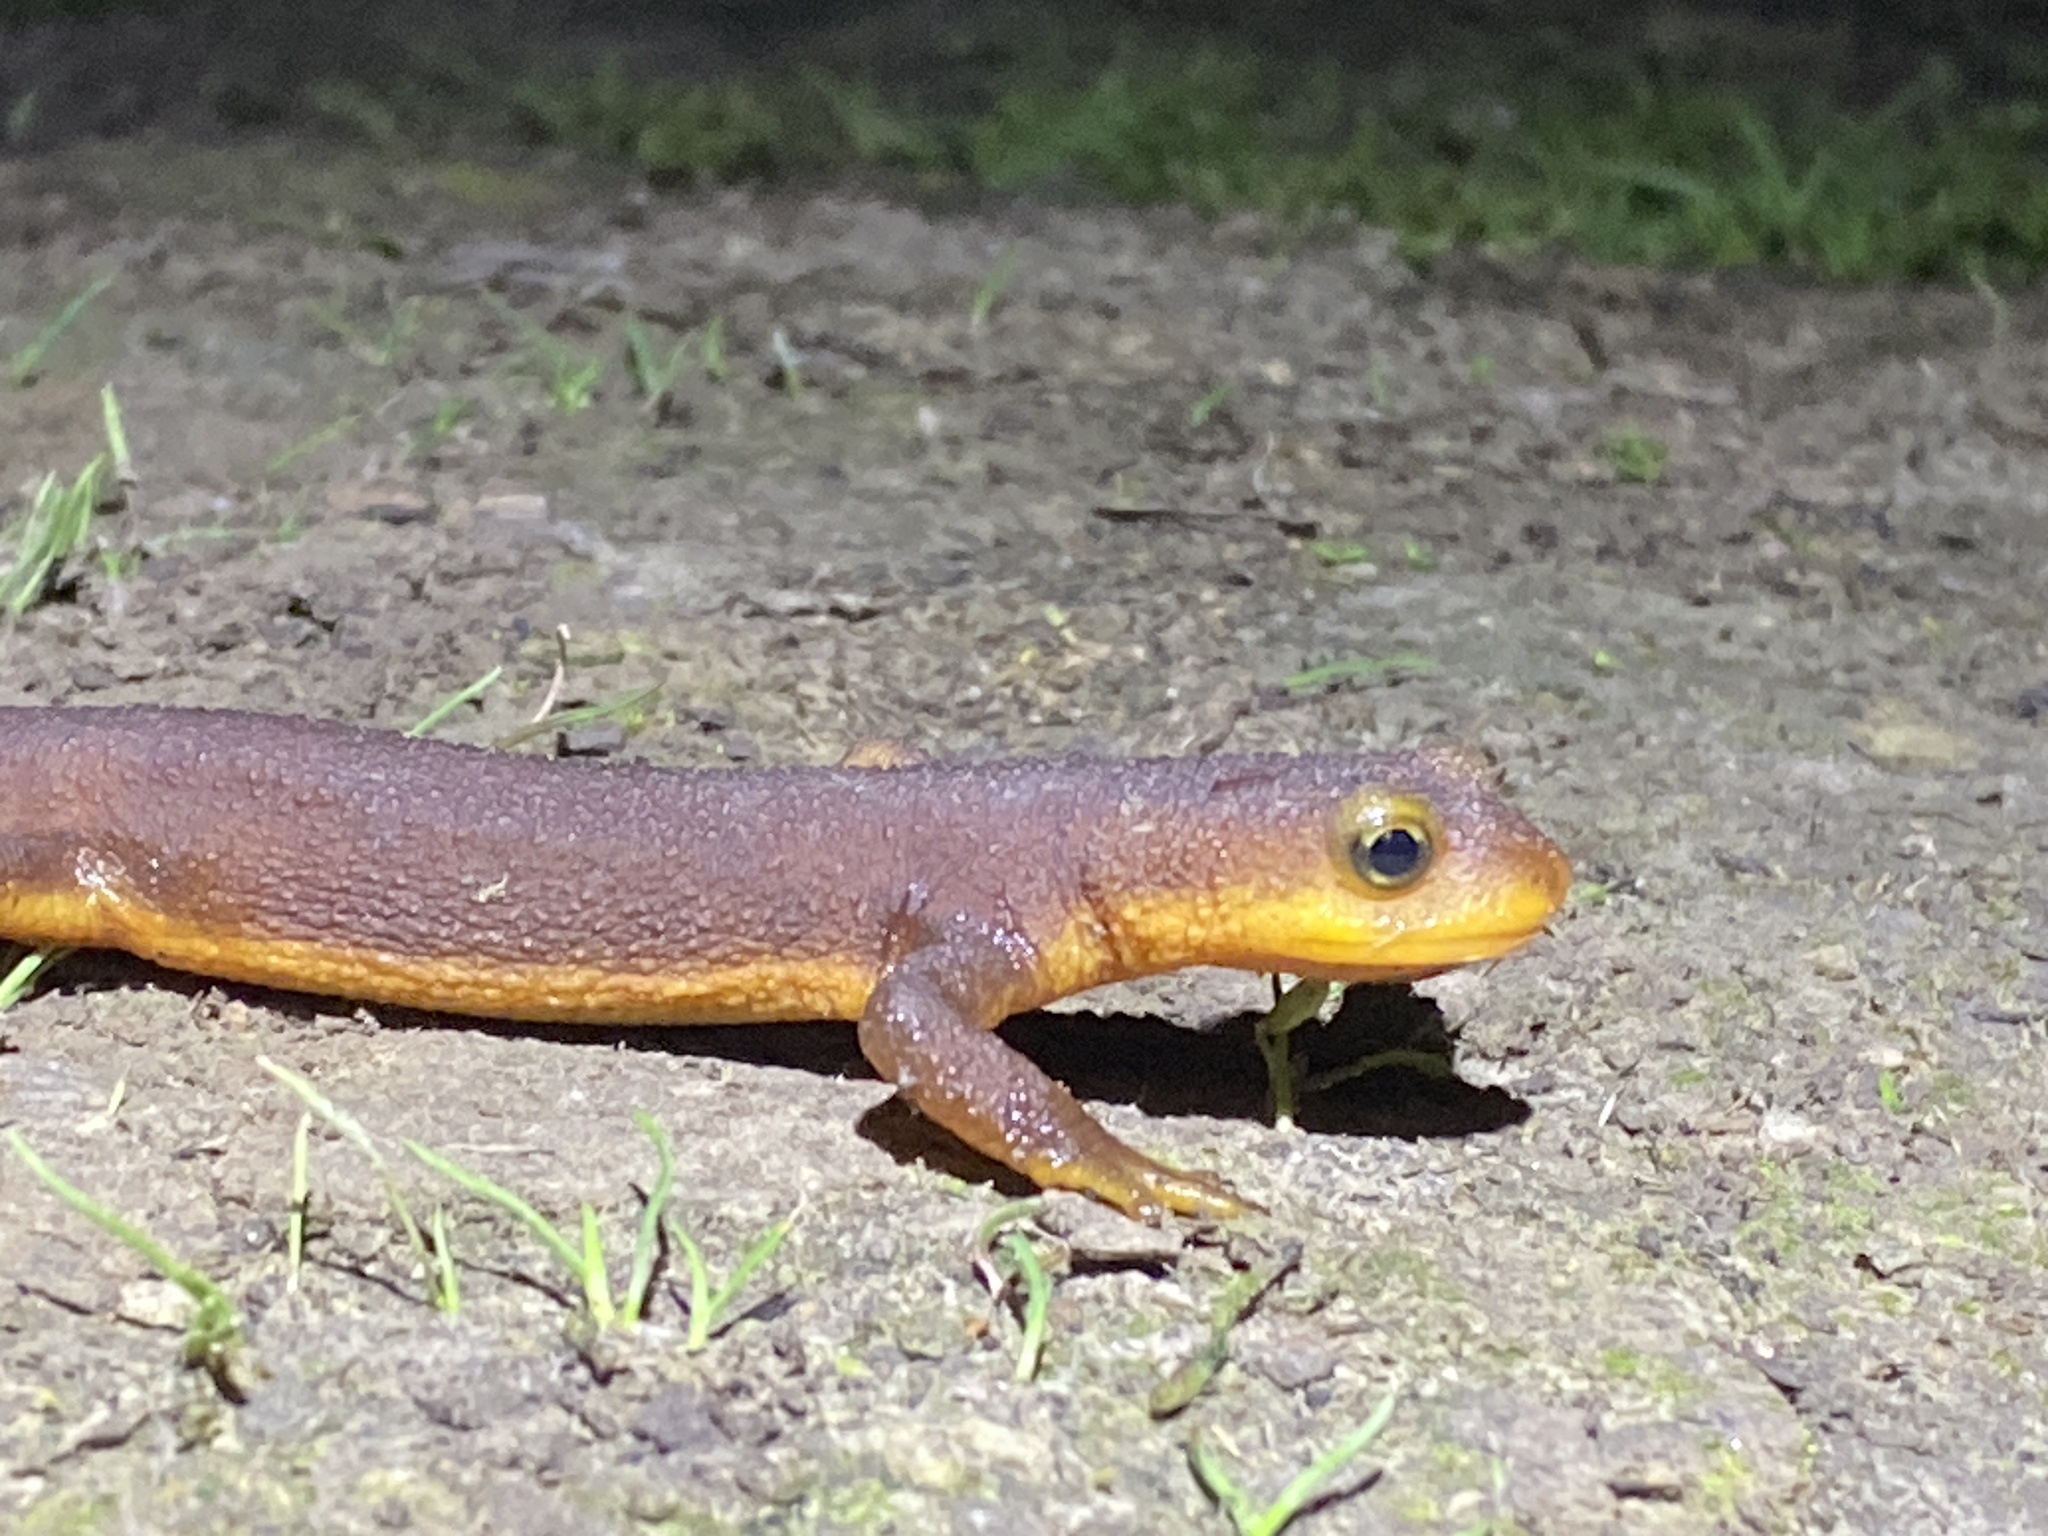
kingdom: Animalia
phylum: Chordata
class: Amphibia
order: Caudata
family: Salamandridae
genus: Taricha
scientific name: Taricha torosa
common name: California newt
